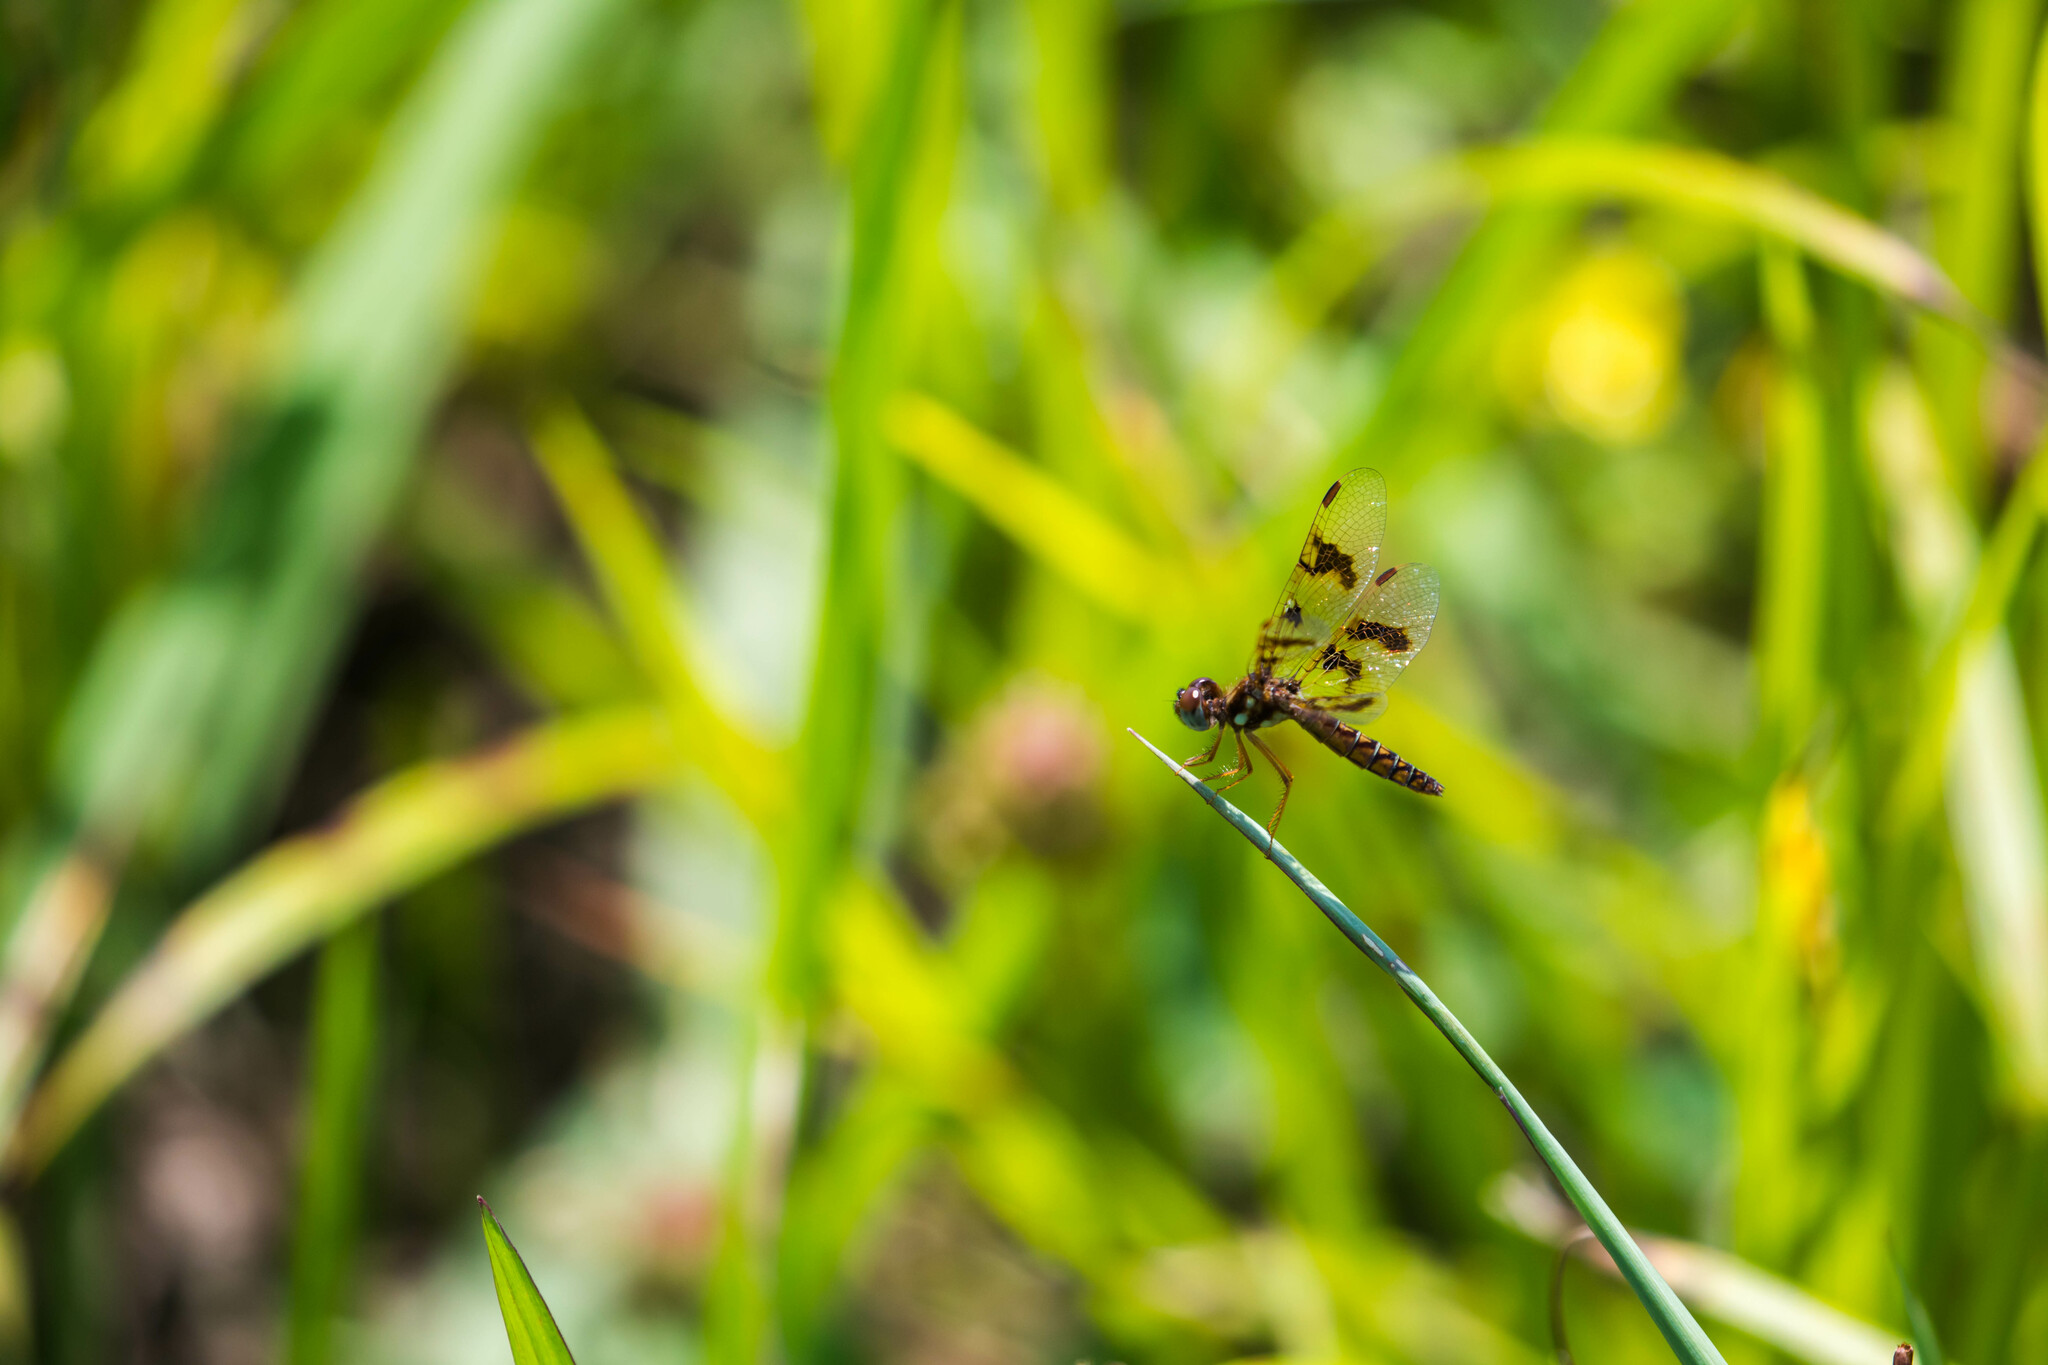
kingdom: Animalia
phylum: Arthropoda
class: Insecta
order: Odonata
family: Libellulidae
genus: Perithemis
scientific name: Perithemis tenera
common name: Eastern amberwing
